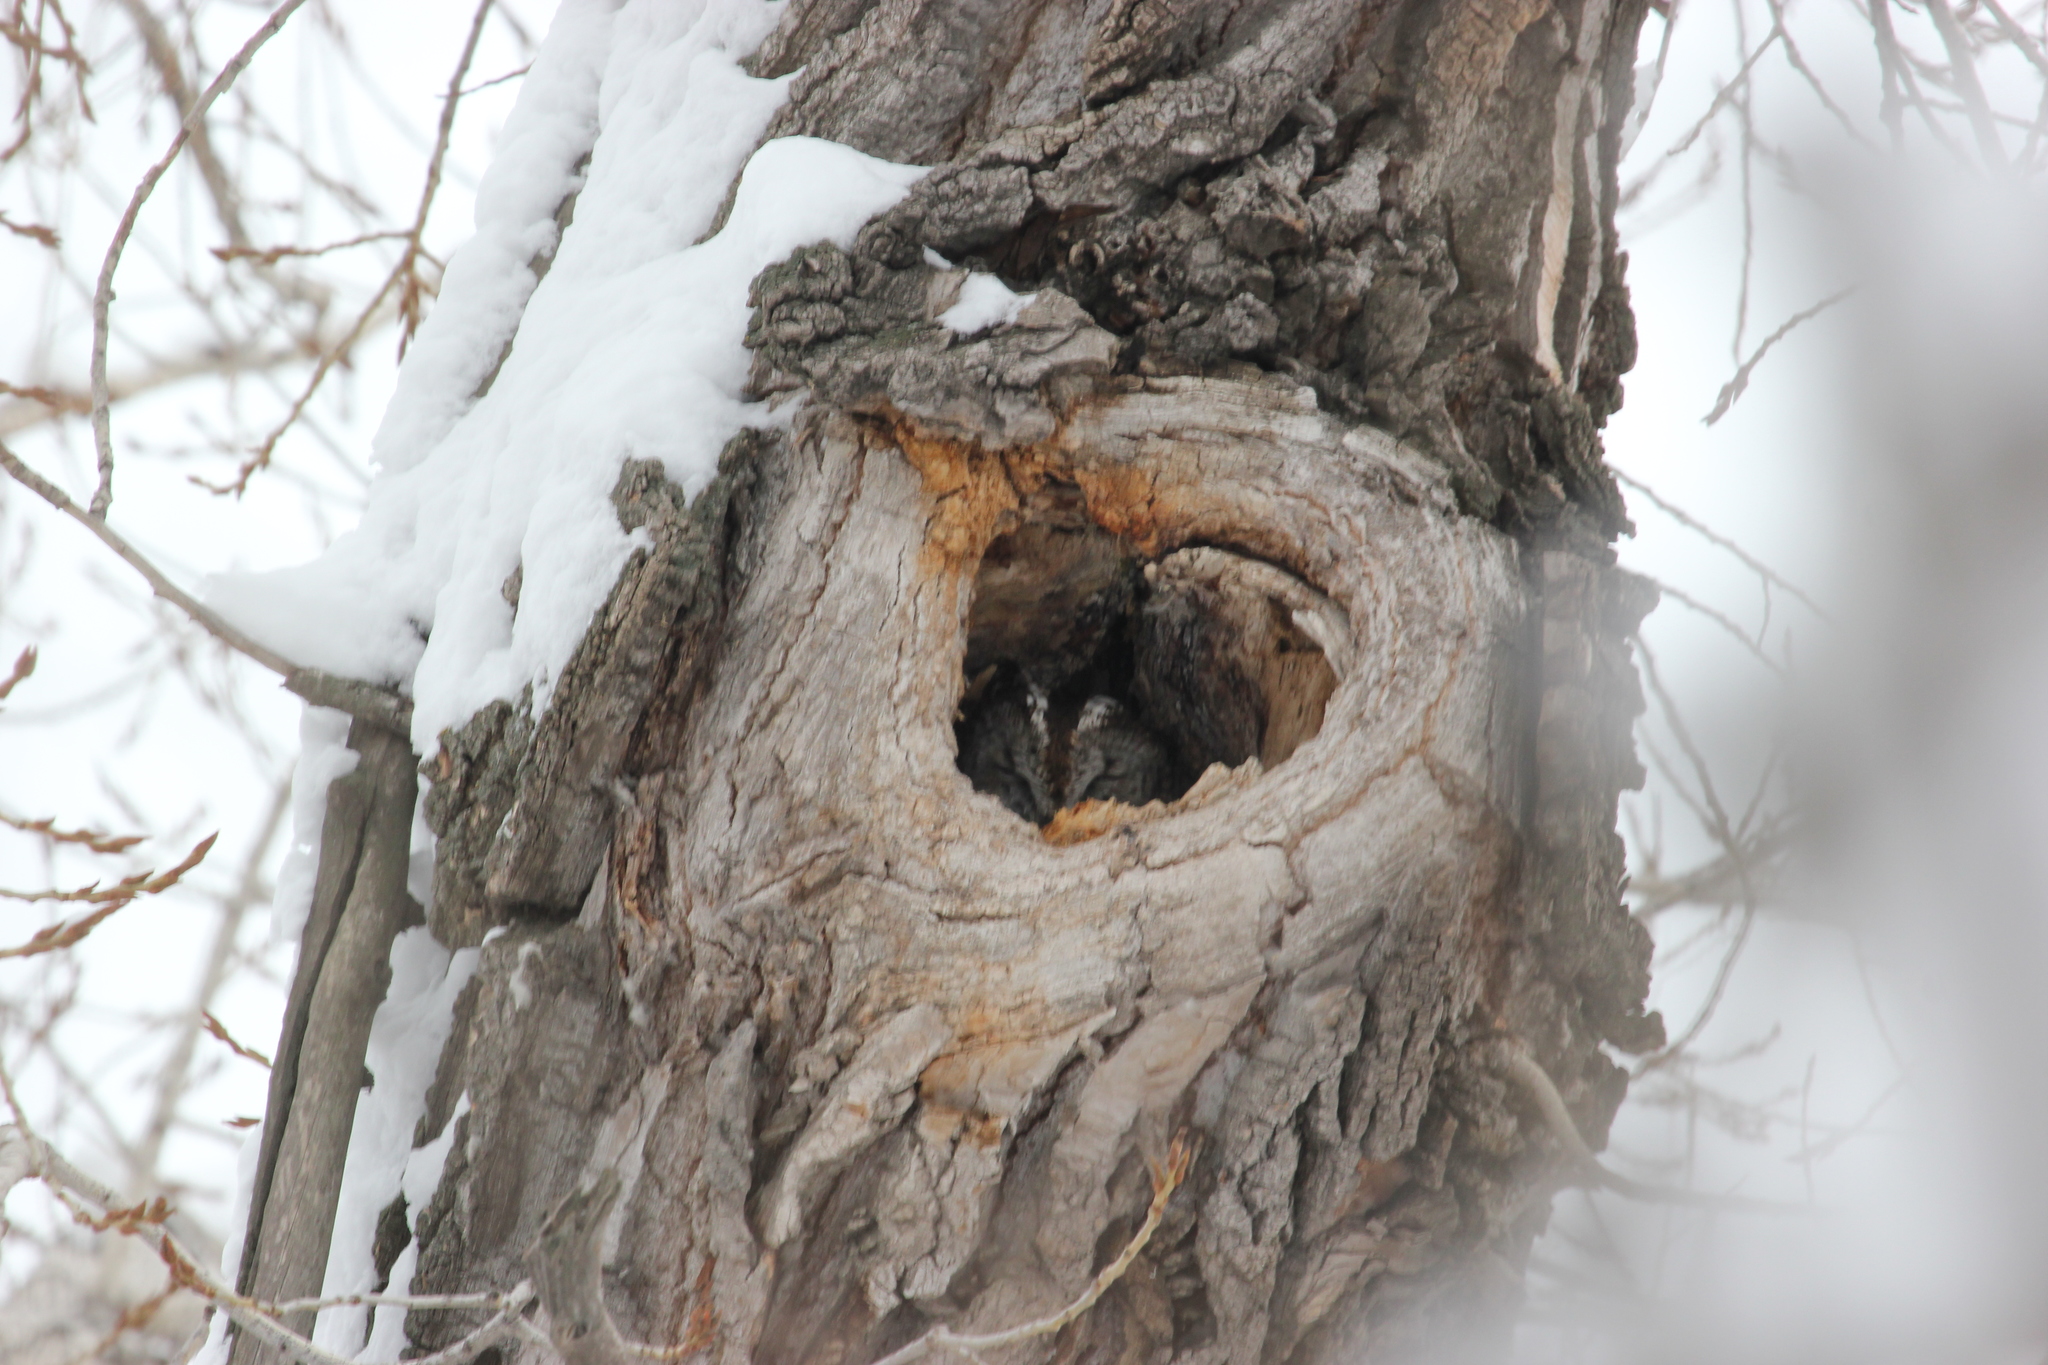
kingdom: Animalia
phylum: Chordata
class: Aves
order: Strigiformes
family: Strigidae
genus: Strix
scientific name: Strix aluco
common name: Tawny owl
